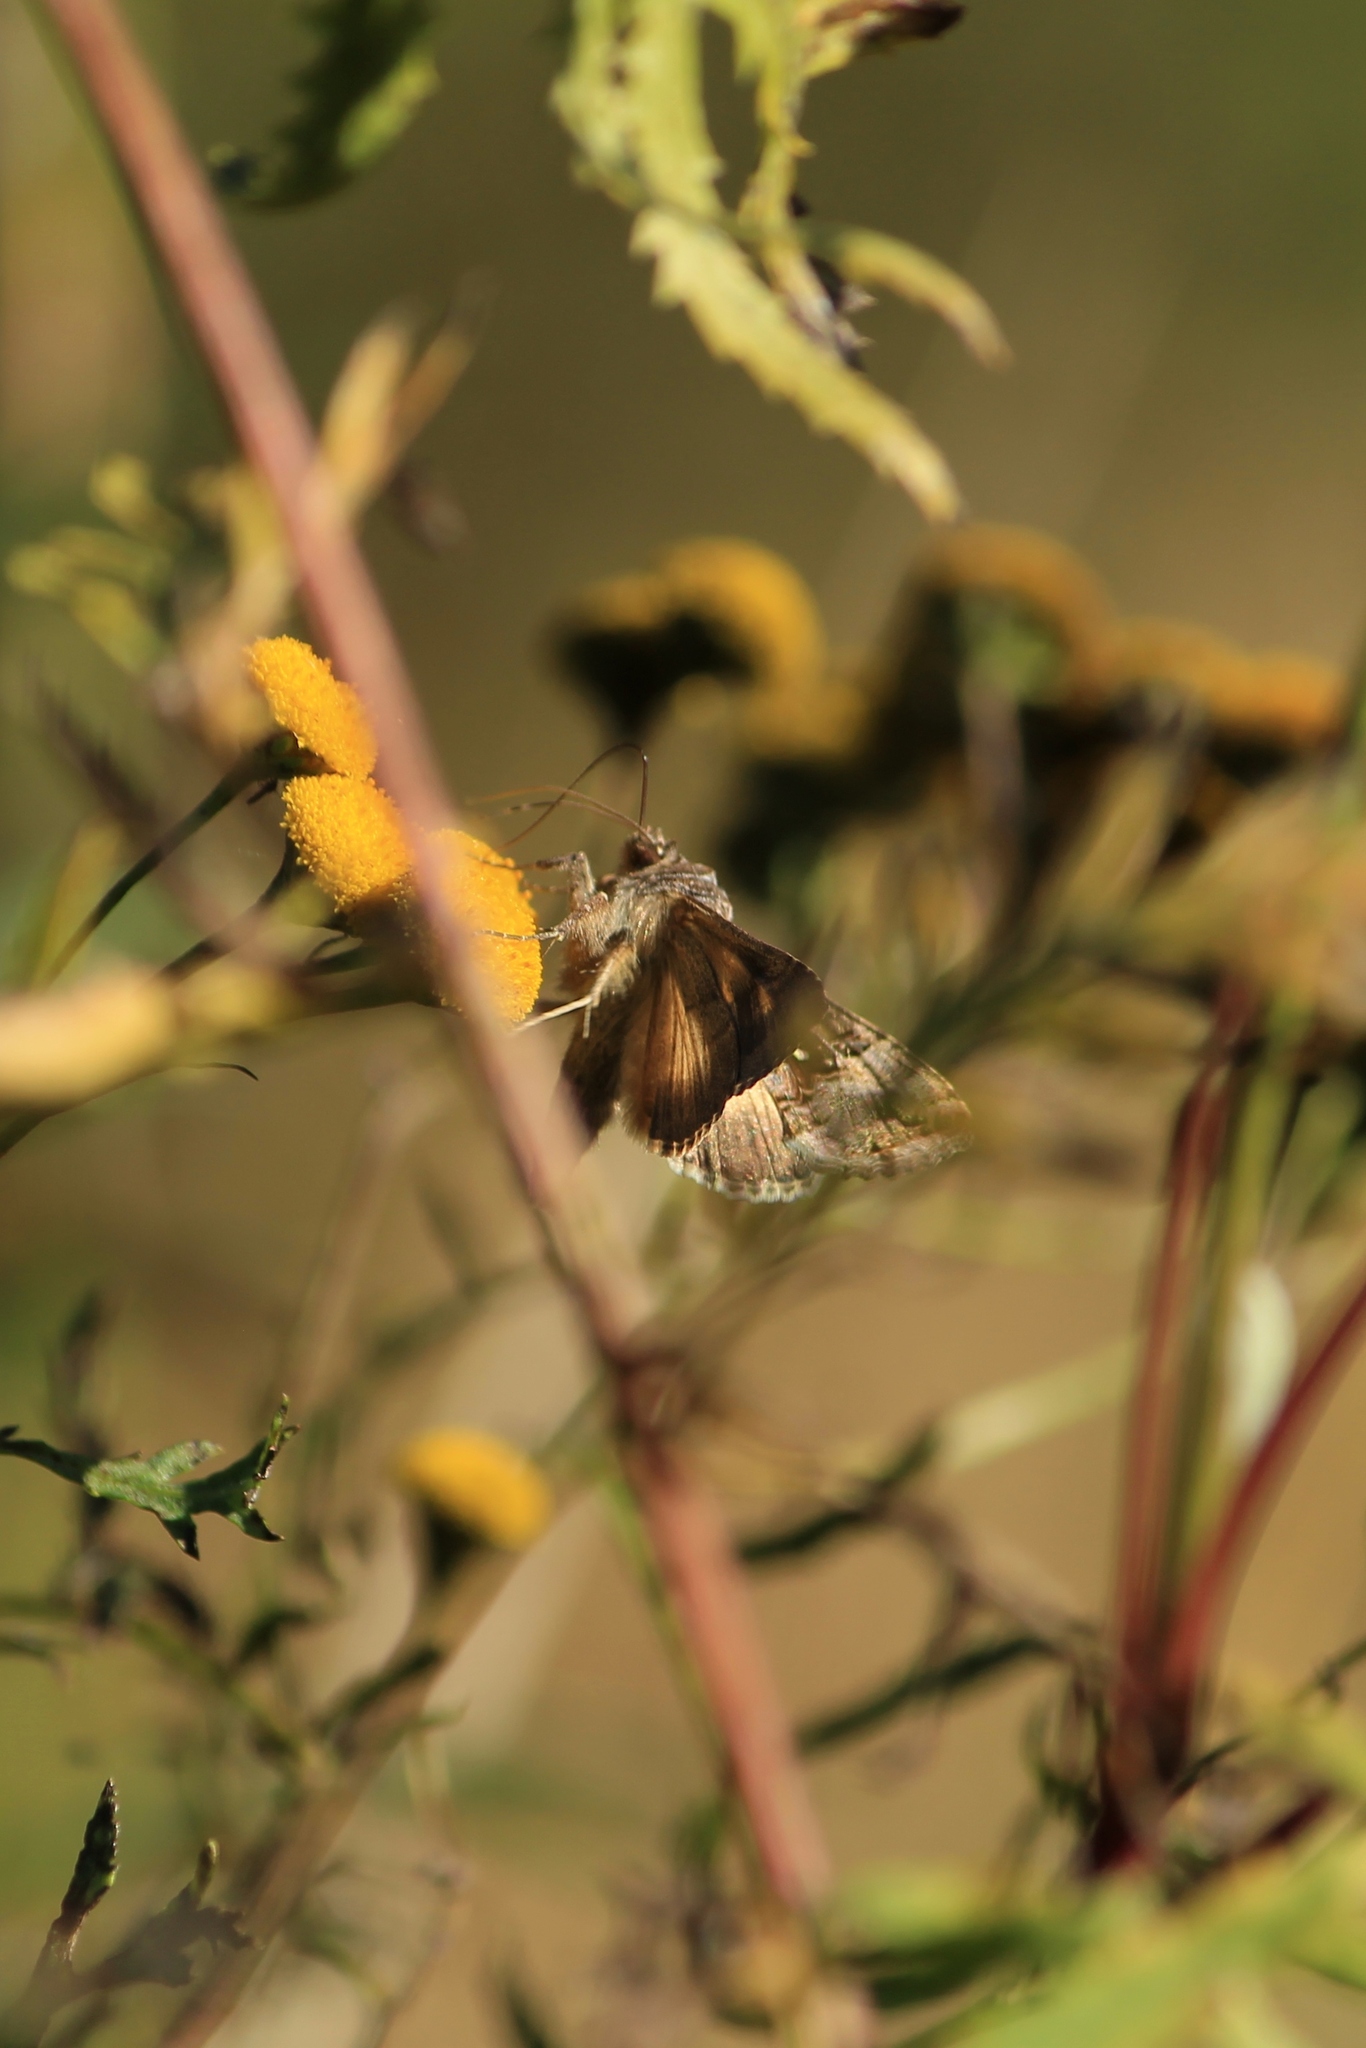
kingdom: Animalia
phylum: Arthropoda
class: Insecta
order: Lepidoptera
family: Noctuidae
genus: Autographa
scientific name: Autographa gamma
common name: Silver y
